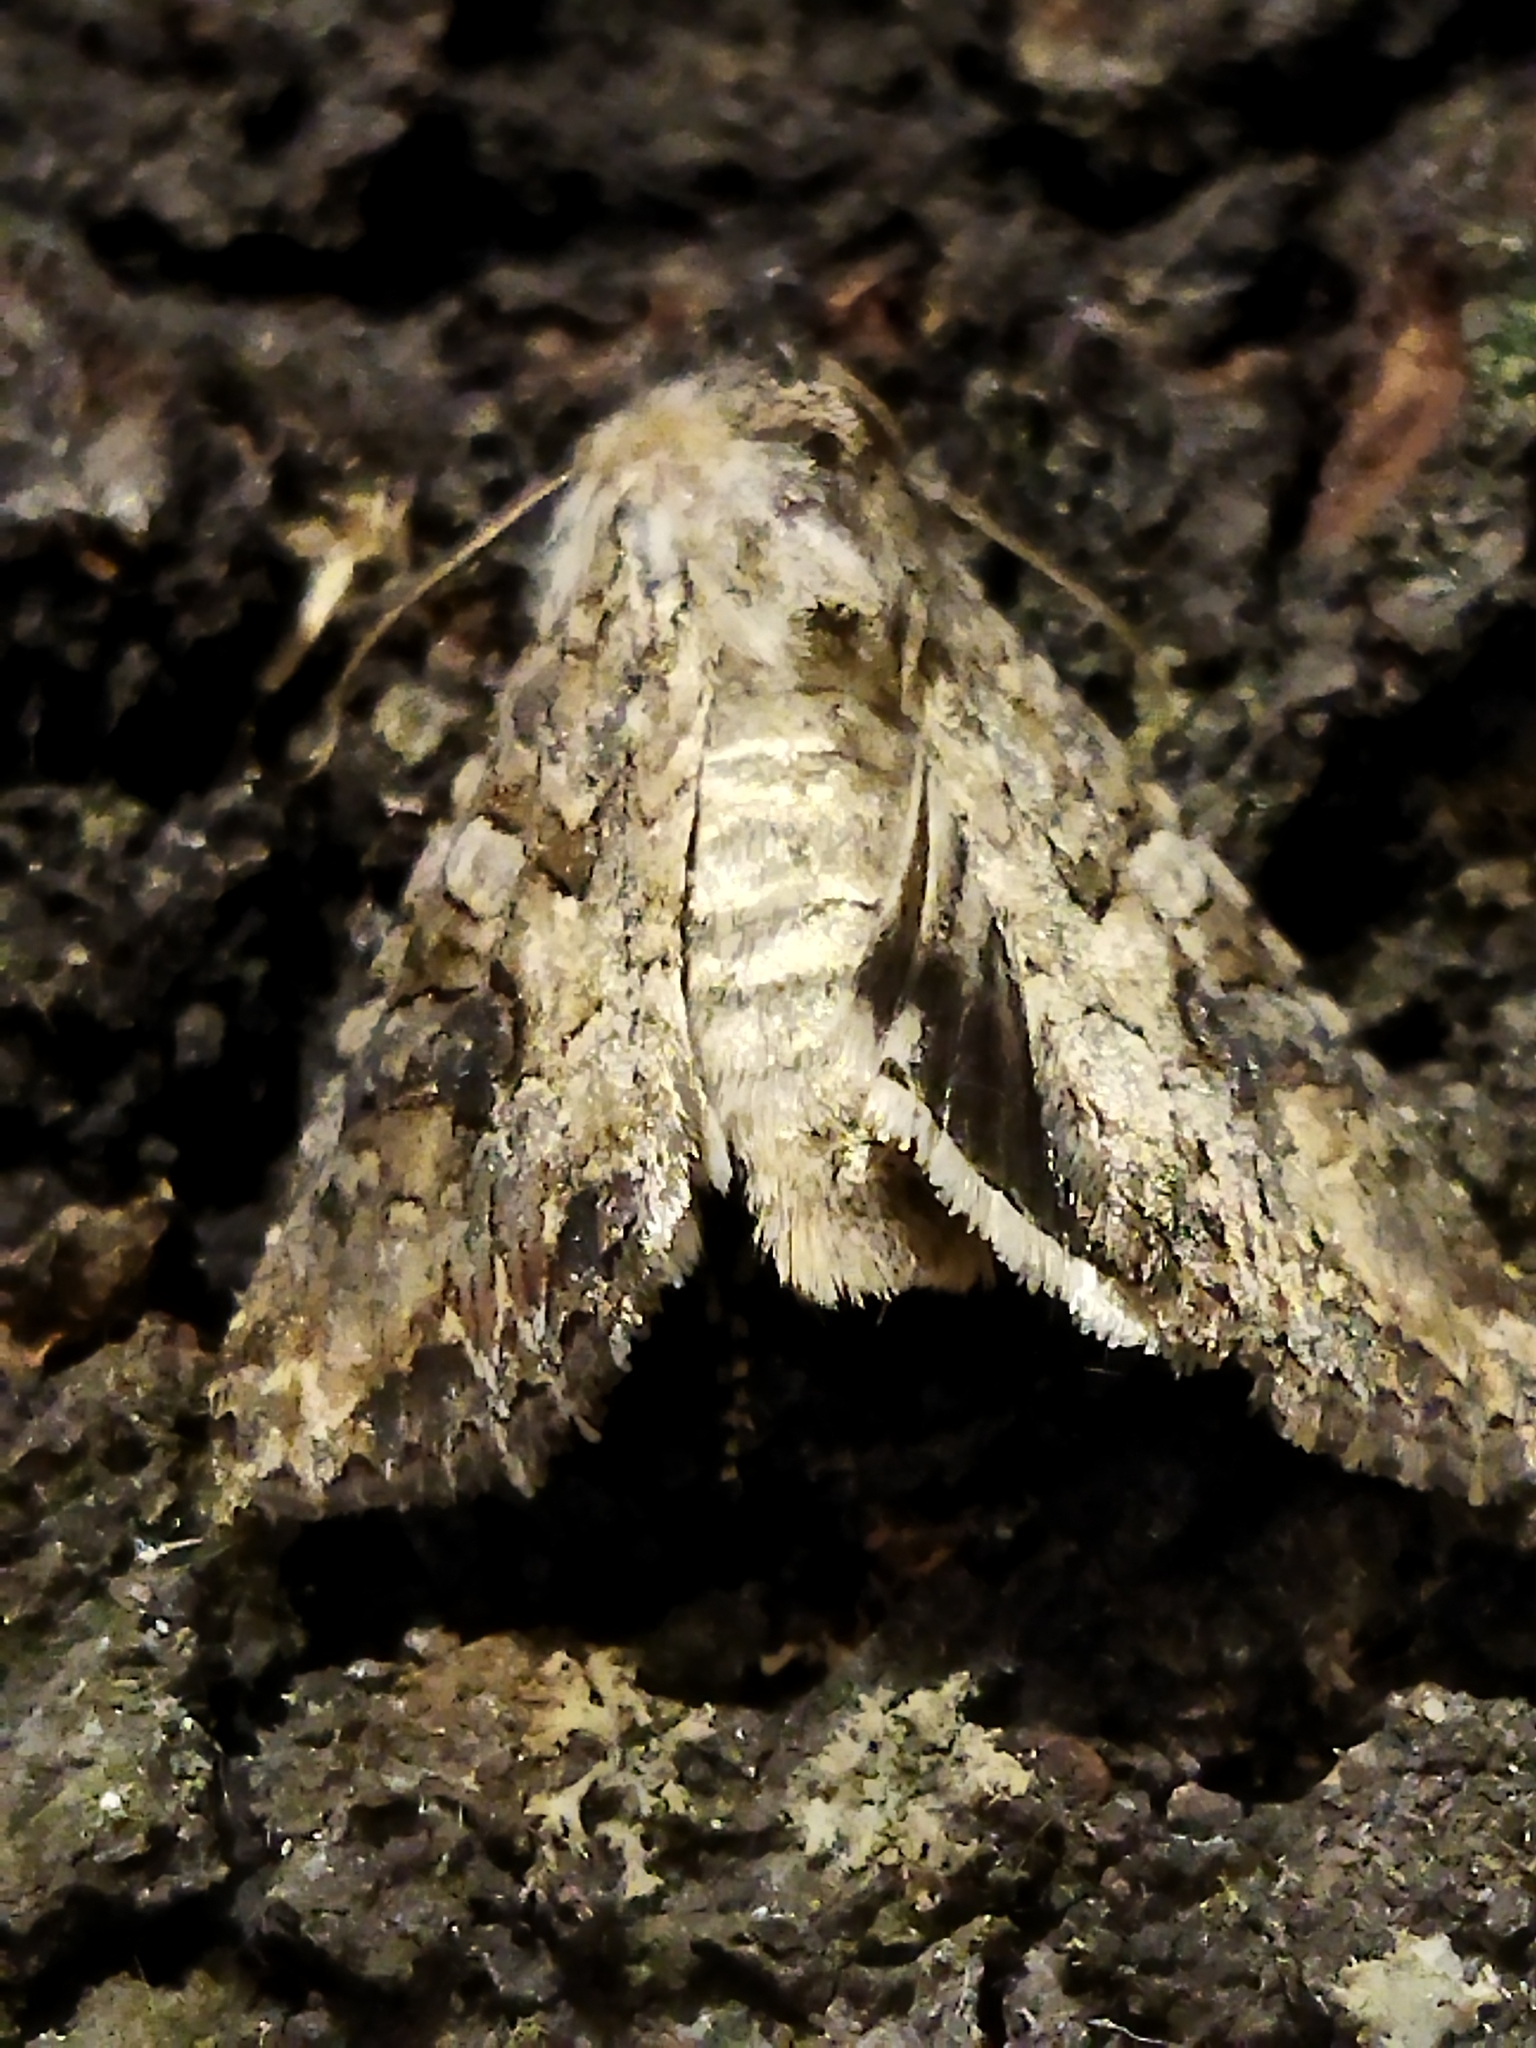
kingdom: Animalia
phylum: Arthropoda
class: Insecta
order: Lepidoptera
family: Noctuidae
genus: Anarta
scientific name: Anarta trifolii
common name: Clover cutworm moth
